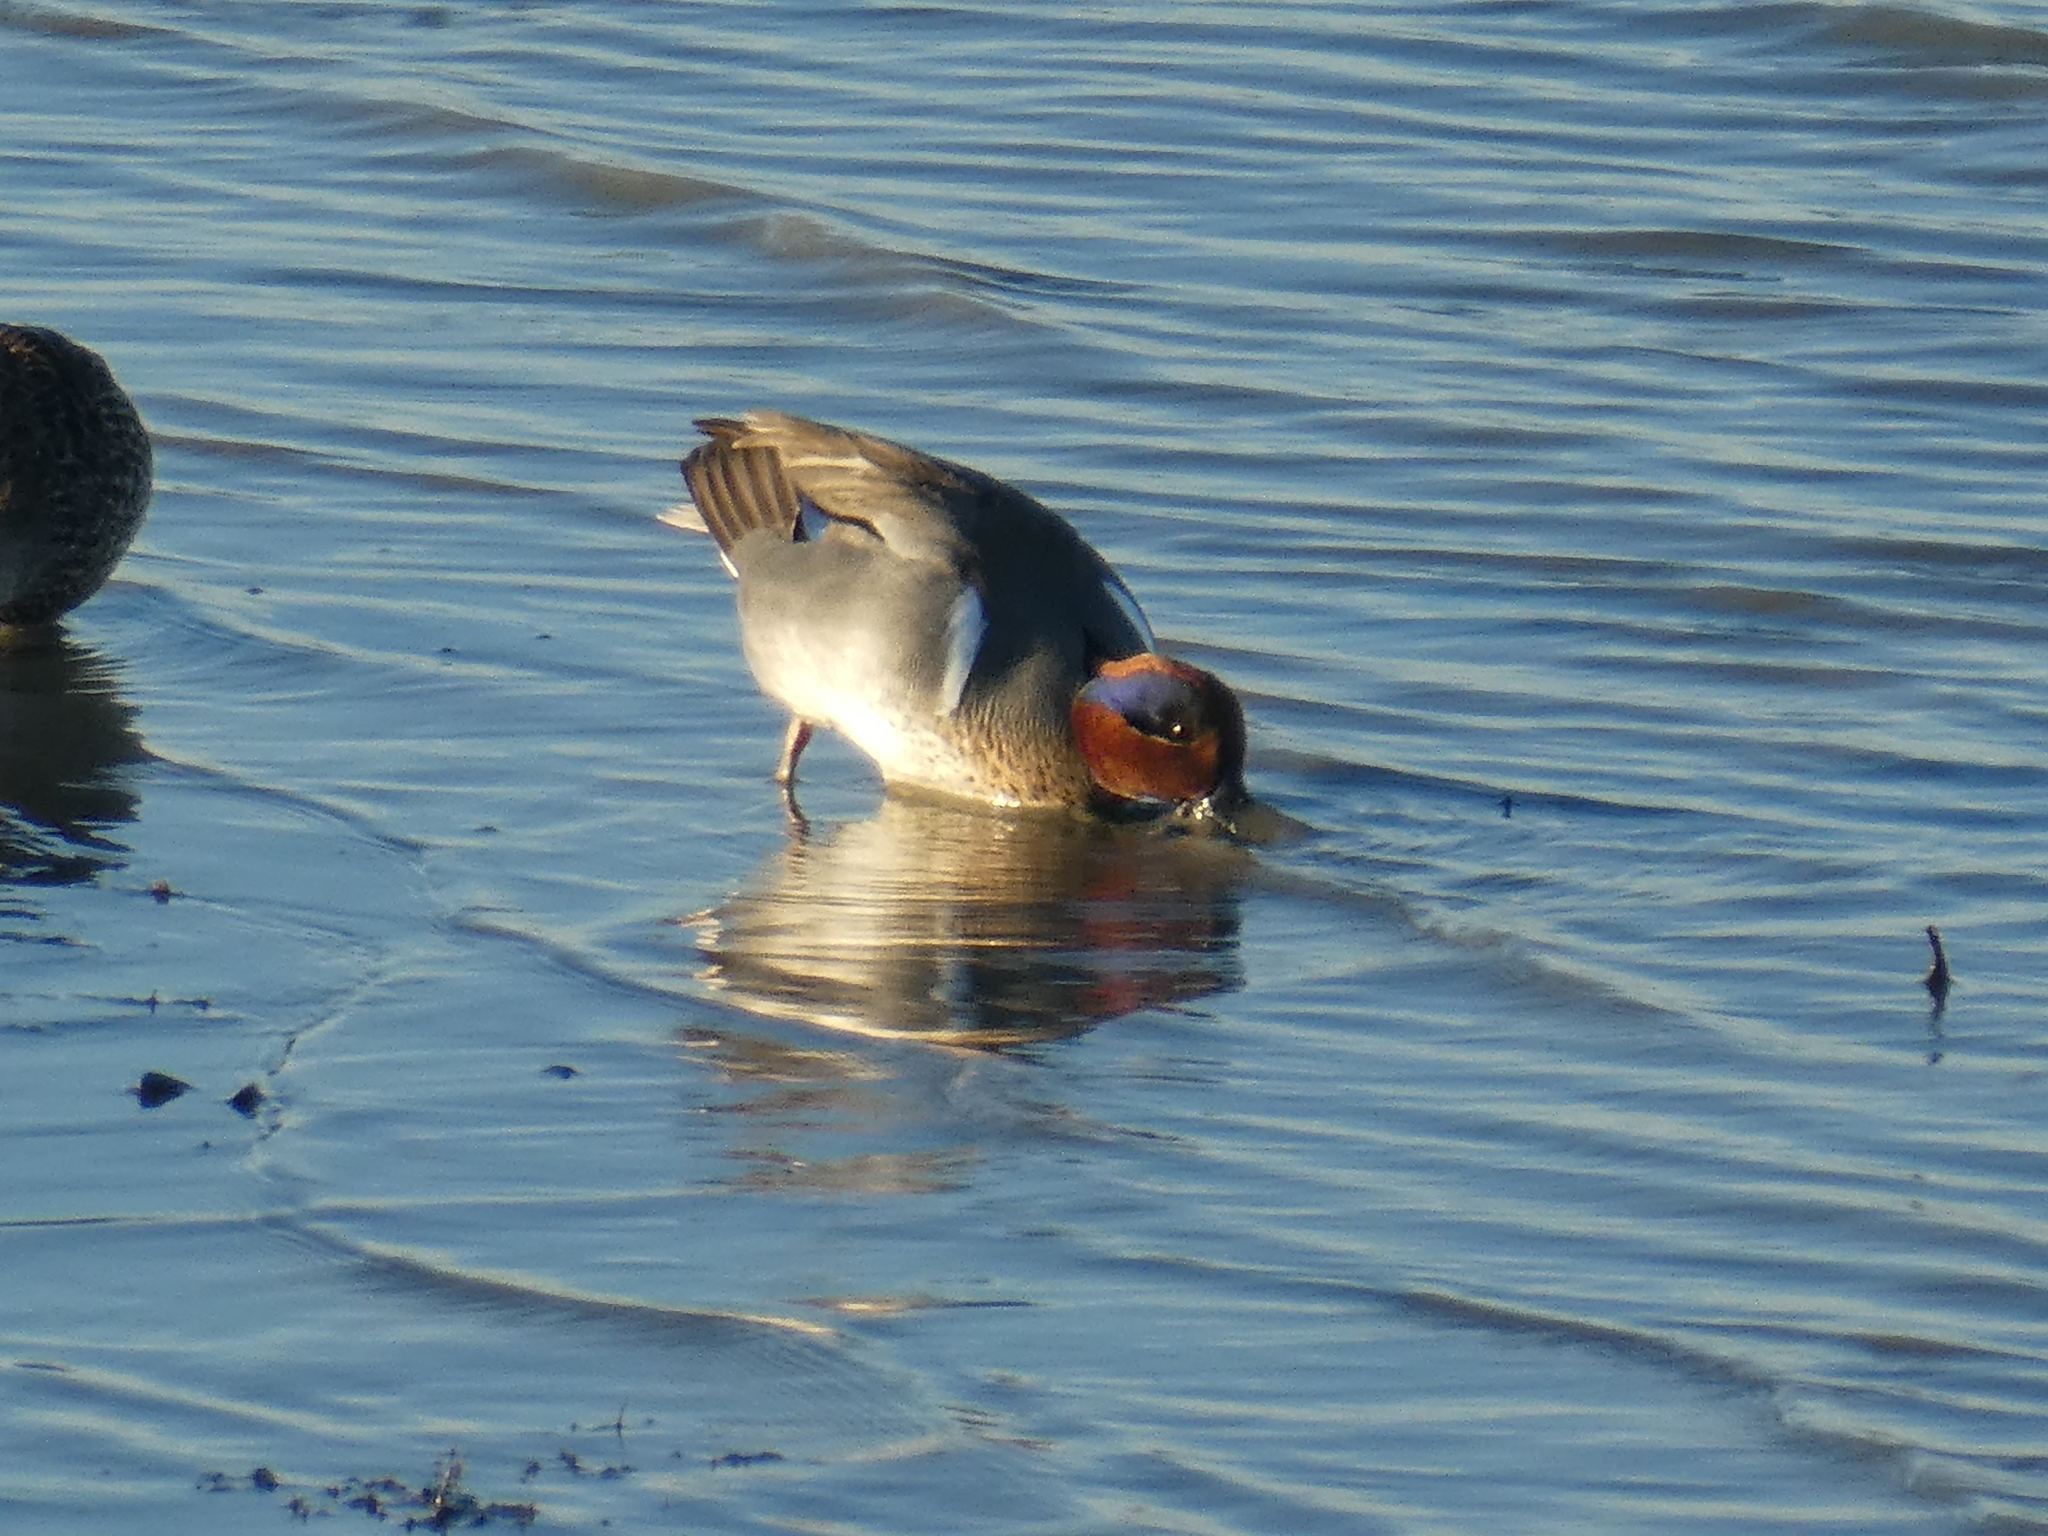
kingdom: Animalia
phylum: Chordata
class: Aves
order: Anseriformes
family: Anatidae
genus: Anas
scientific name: Anas crecca
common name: Eurasian teal
